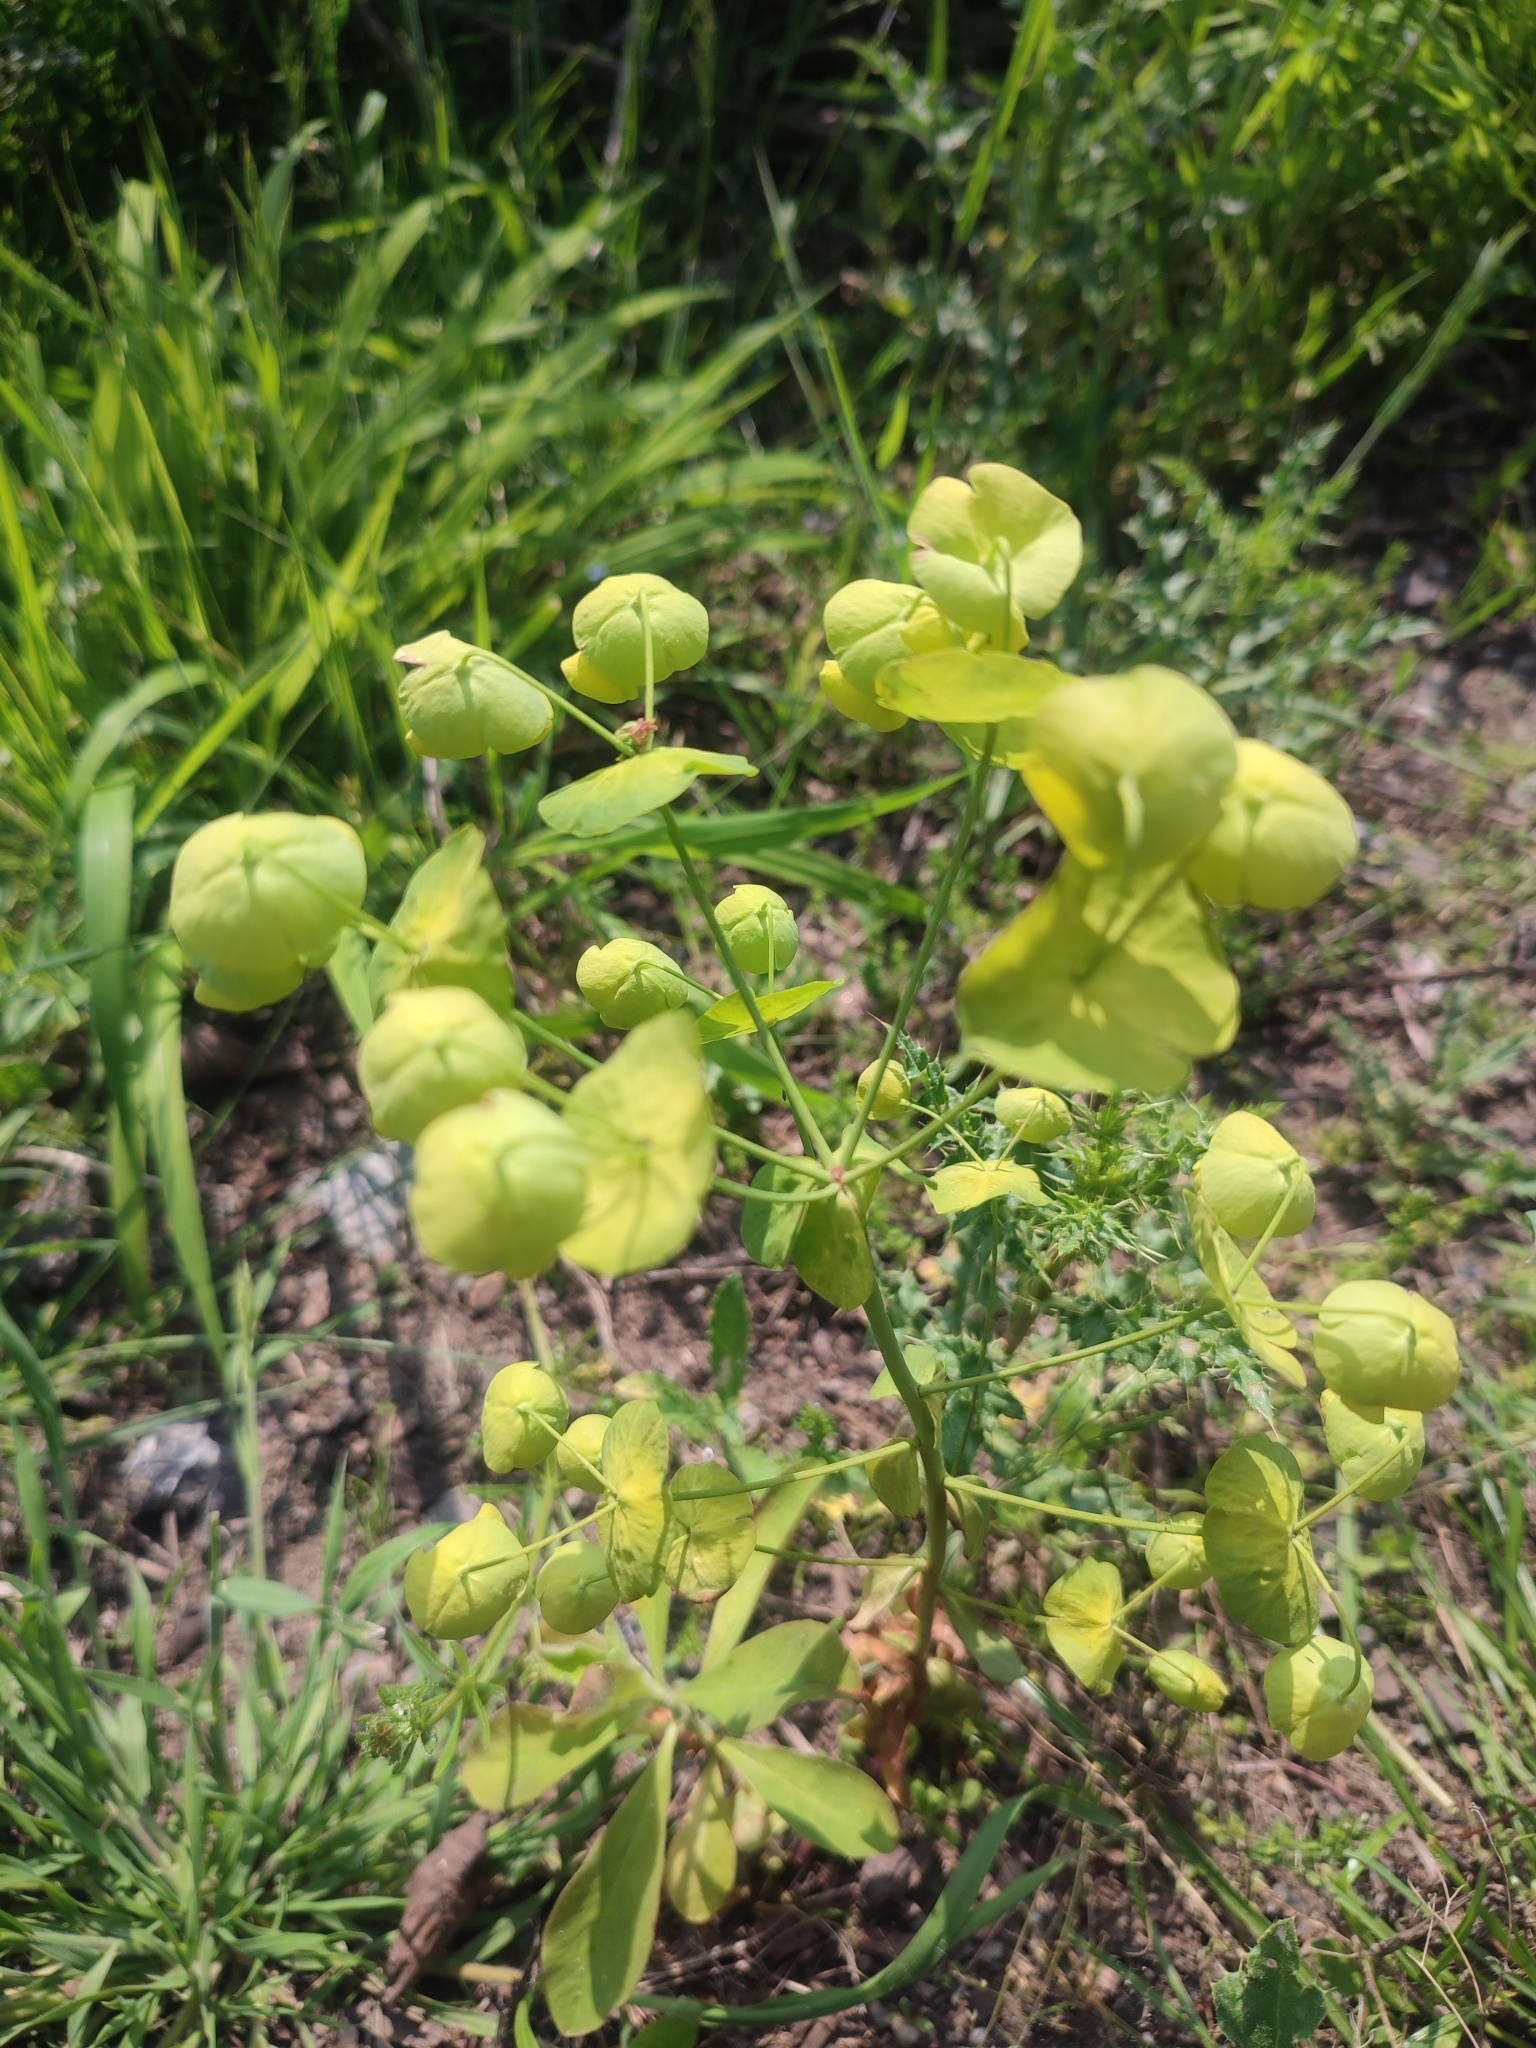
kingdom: Plantae
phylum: Tracheophyta
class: Magnoliopsida
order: Malpighiales
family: Euphorbiaceae
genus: Euphorbia
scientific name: Euphorbia amygdaloides
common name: Wood spurge
